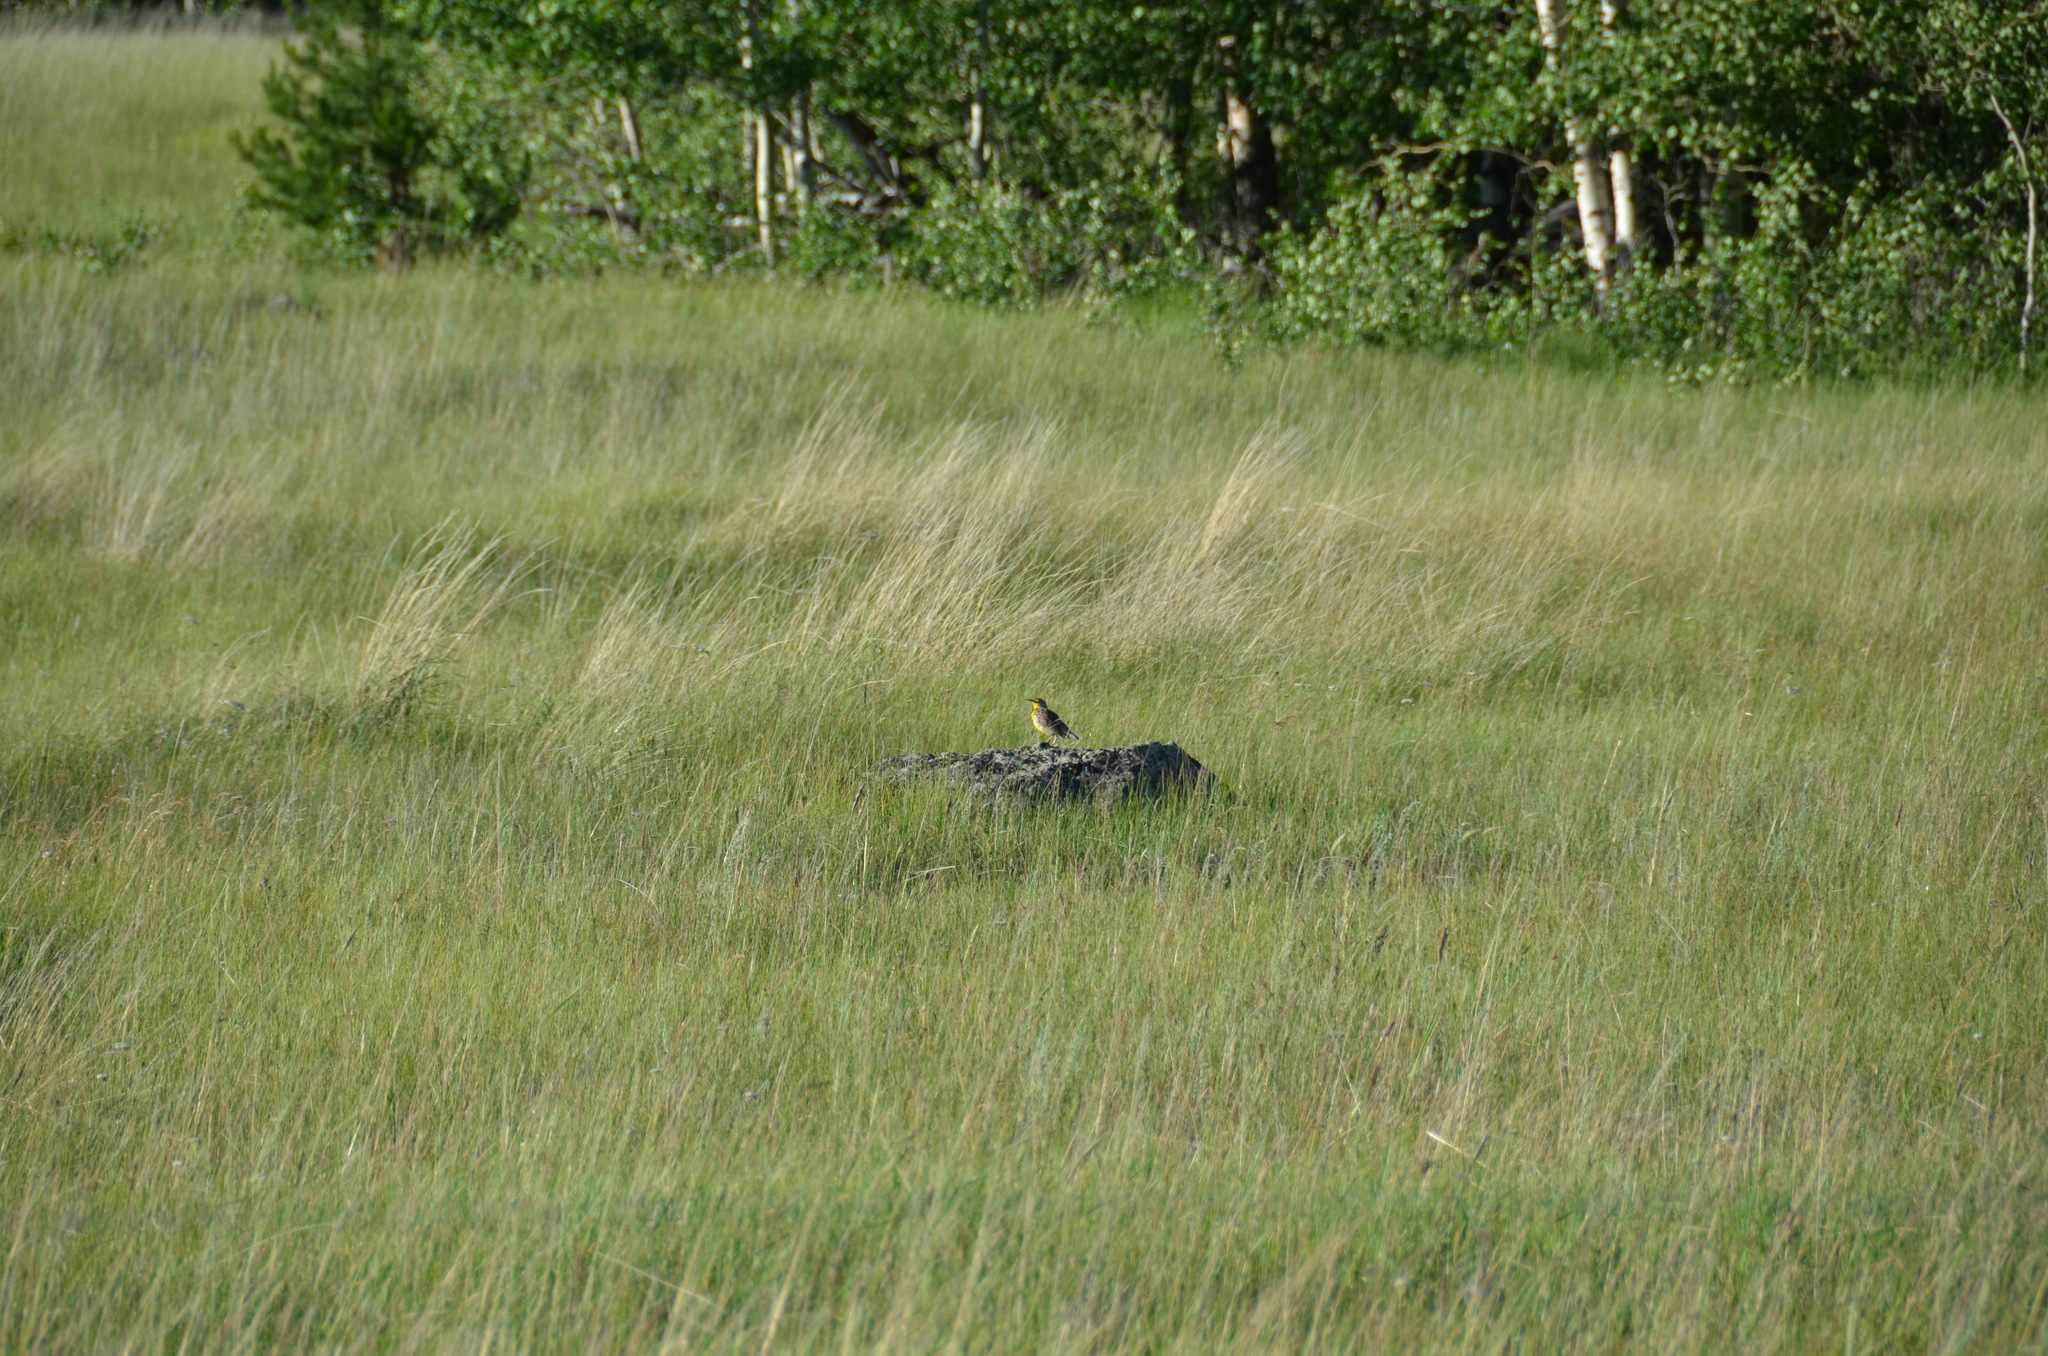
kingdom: Animalia
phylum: Chordata
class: Aves
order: Passeriformes
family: Icteridae
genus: Sturnella
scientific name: Sturnella neglecta
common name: Western meadowlark
